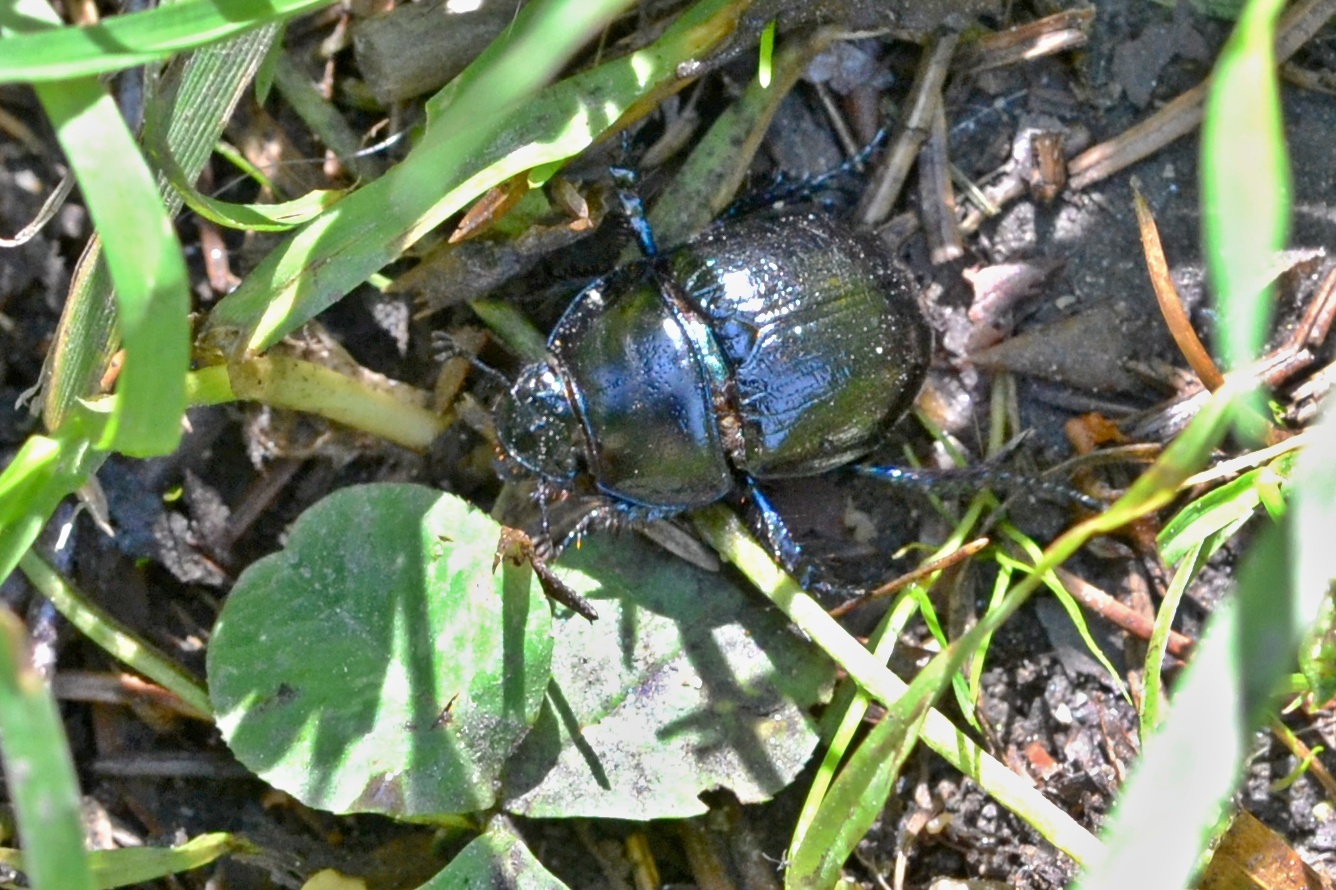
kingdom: Animalia
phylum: Arthropoda
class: Insecta
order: Coleoptera
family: Geotrupidae
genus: Anoplotrupes
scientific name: Anoplotrupes stercorosus
